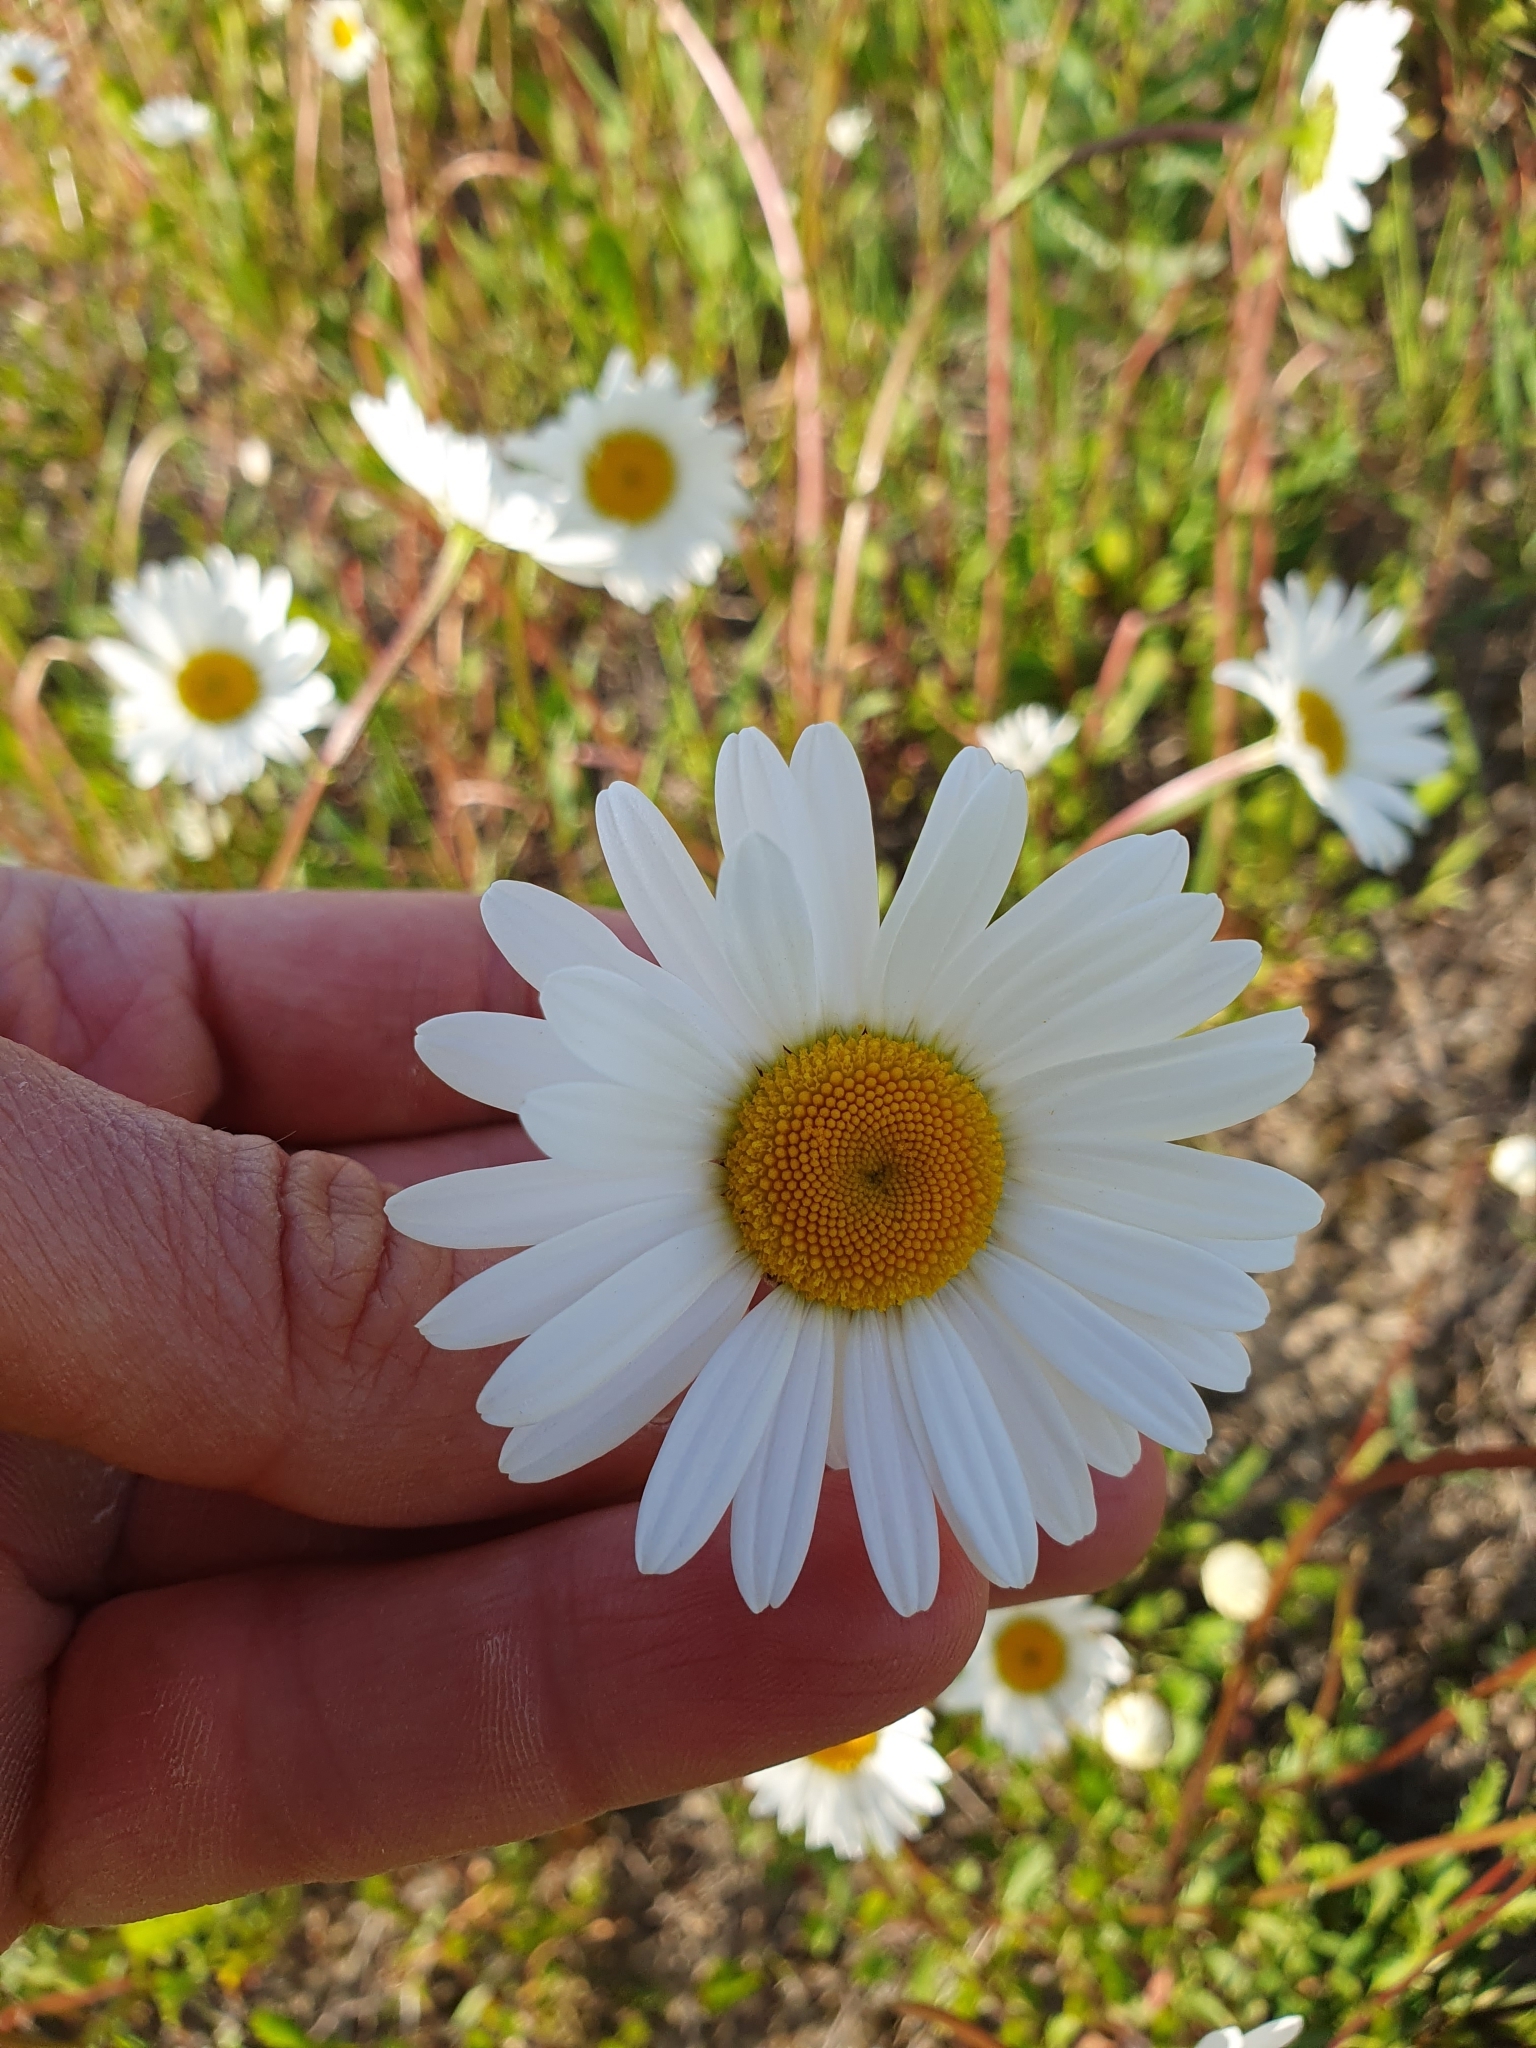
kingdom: Plantae
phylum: Tracheophyta
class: Magnoliopsida
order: Asterales
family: Asteraceae
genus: Leucanthemum
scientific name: Leucanthemum vulgare
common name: Oxeye daisy
